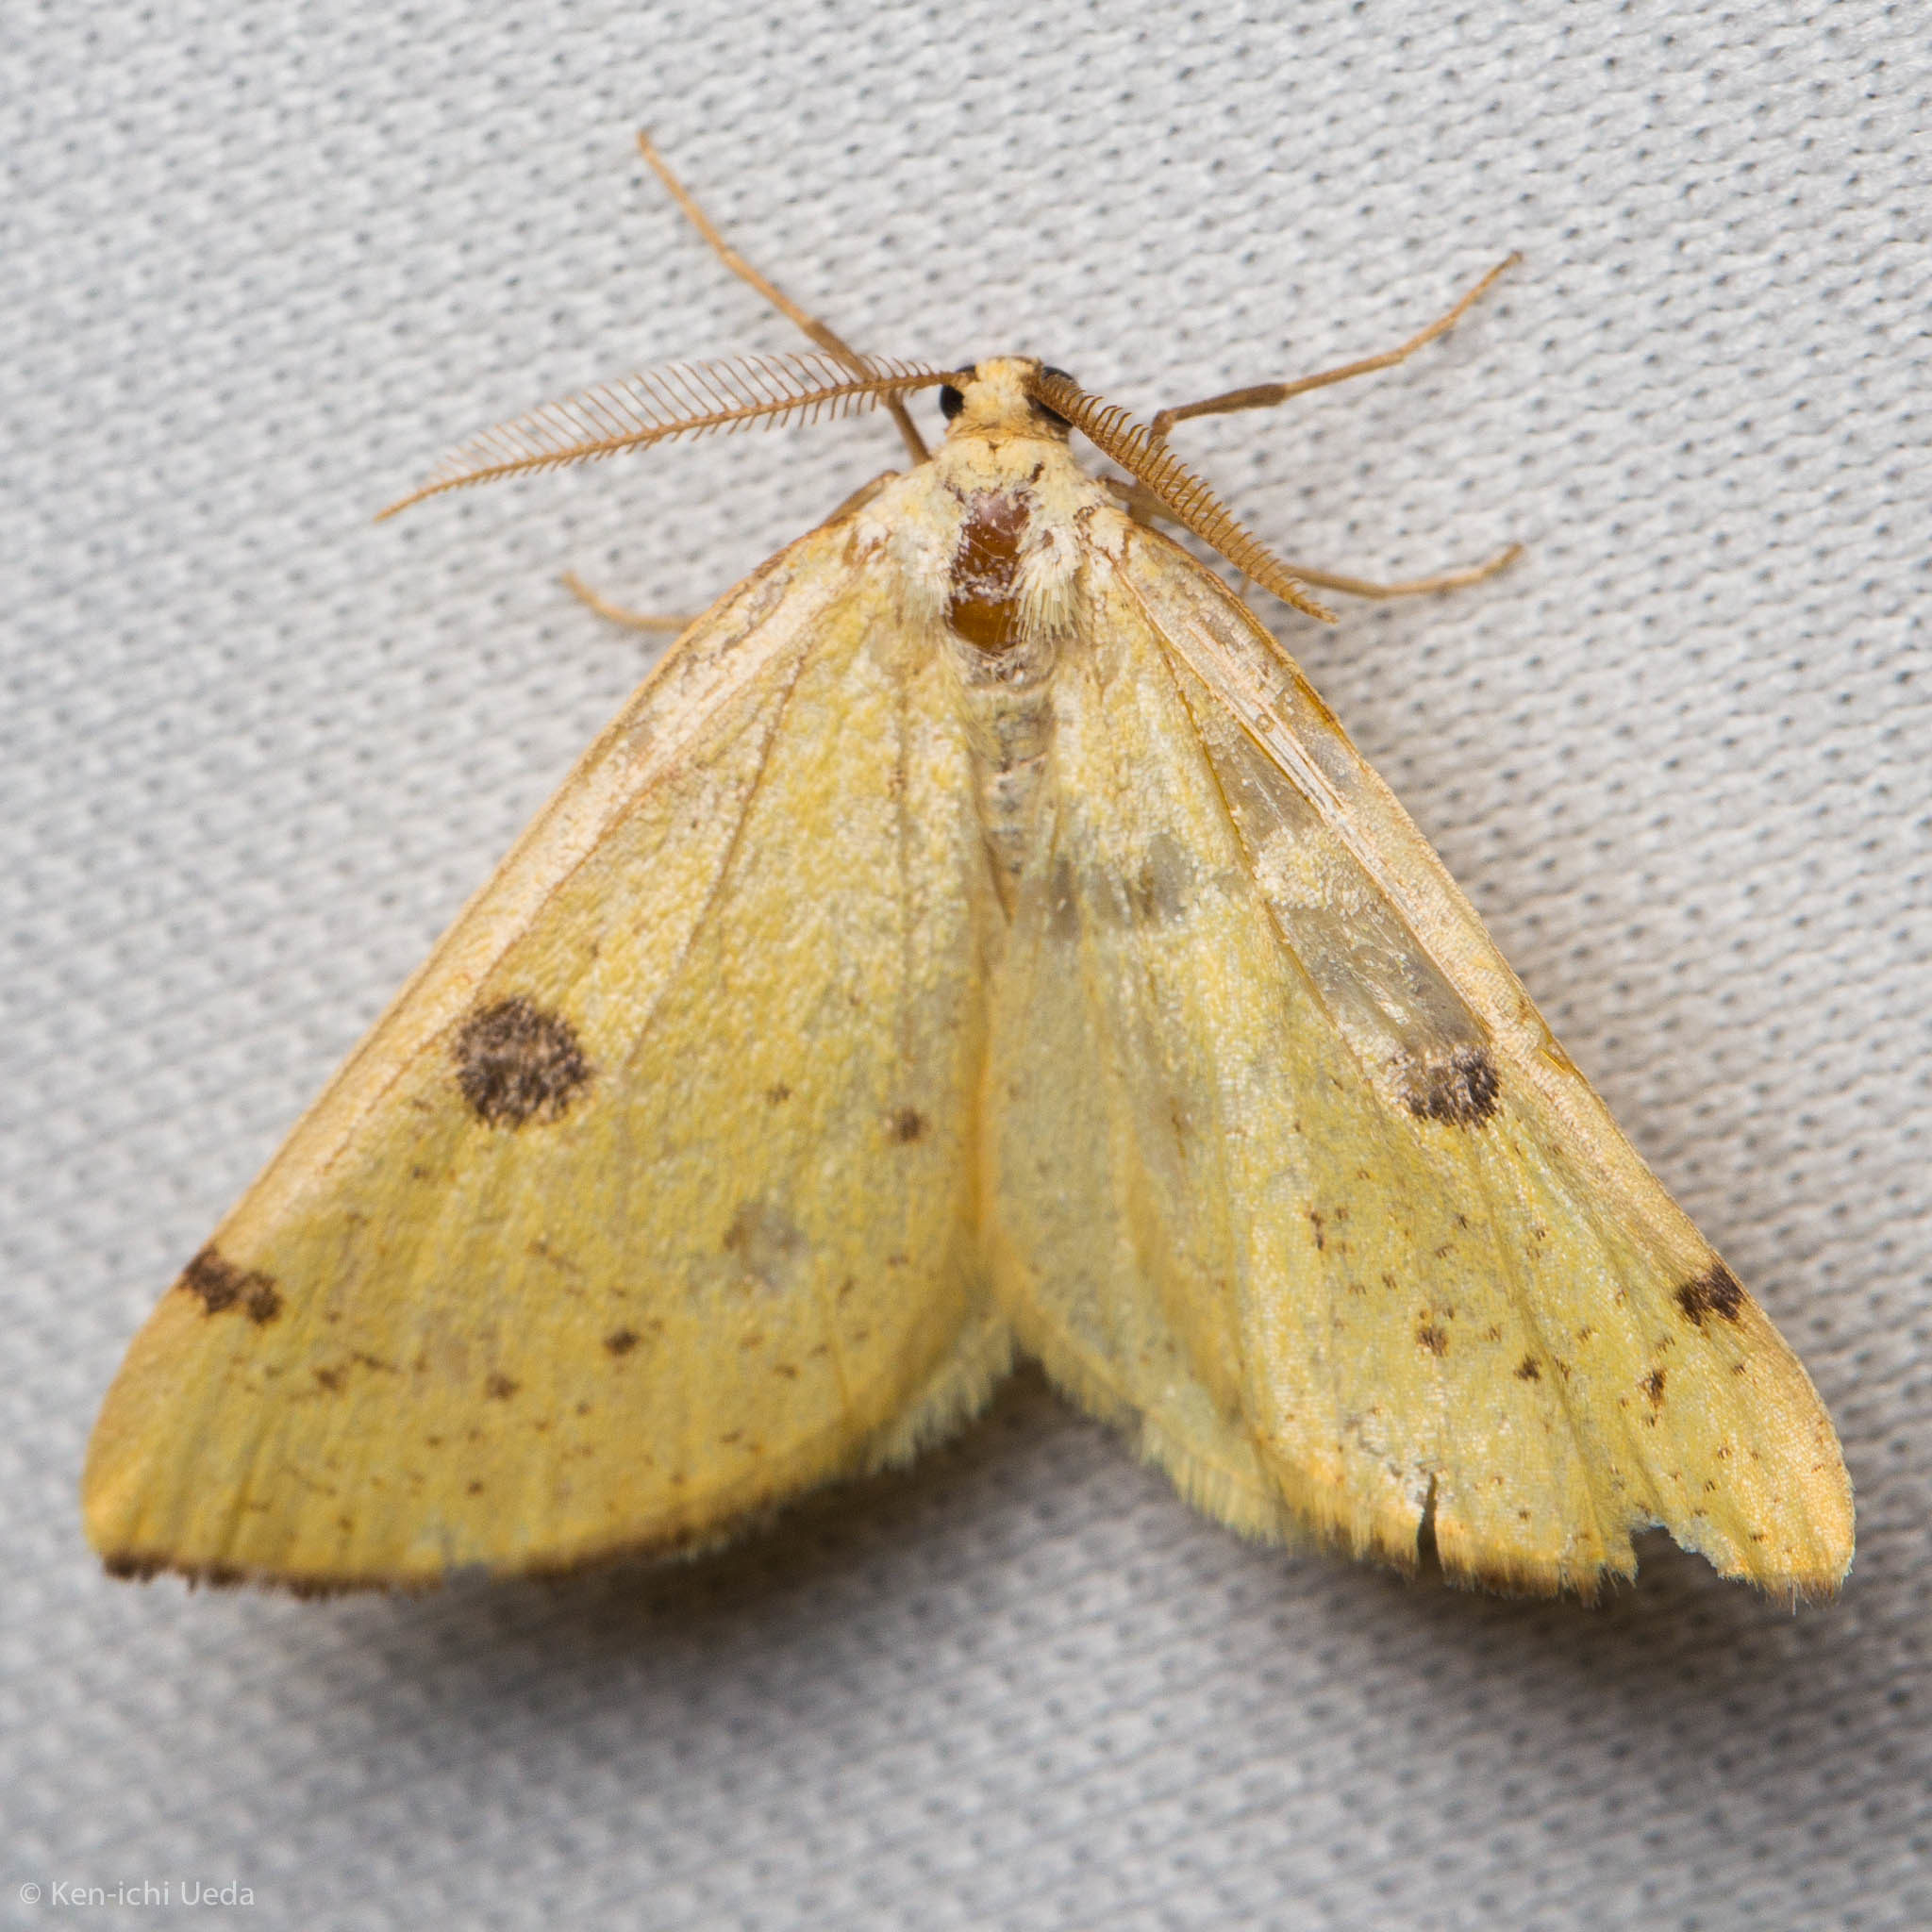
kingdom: Animalia
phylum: Arthropoda
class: Insecta
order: Lepidoptera
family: Geometridae
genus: Hesperumia
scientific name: Hesperumia sulphuraria
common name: Sulphur moth
